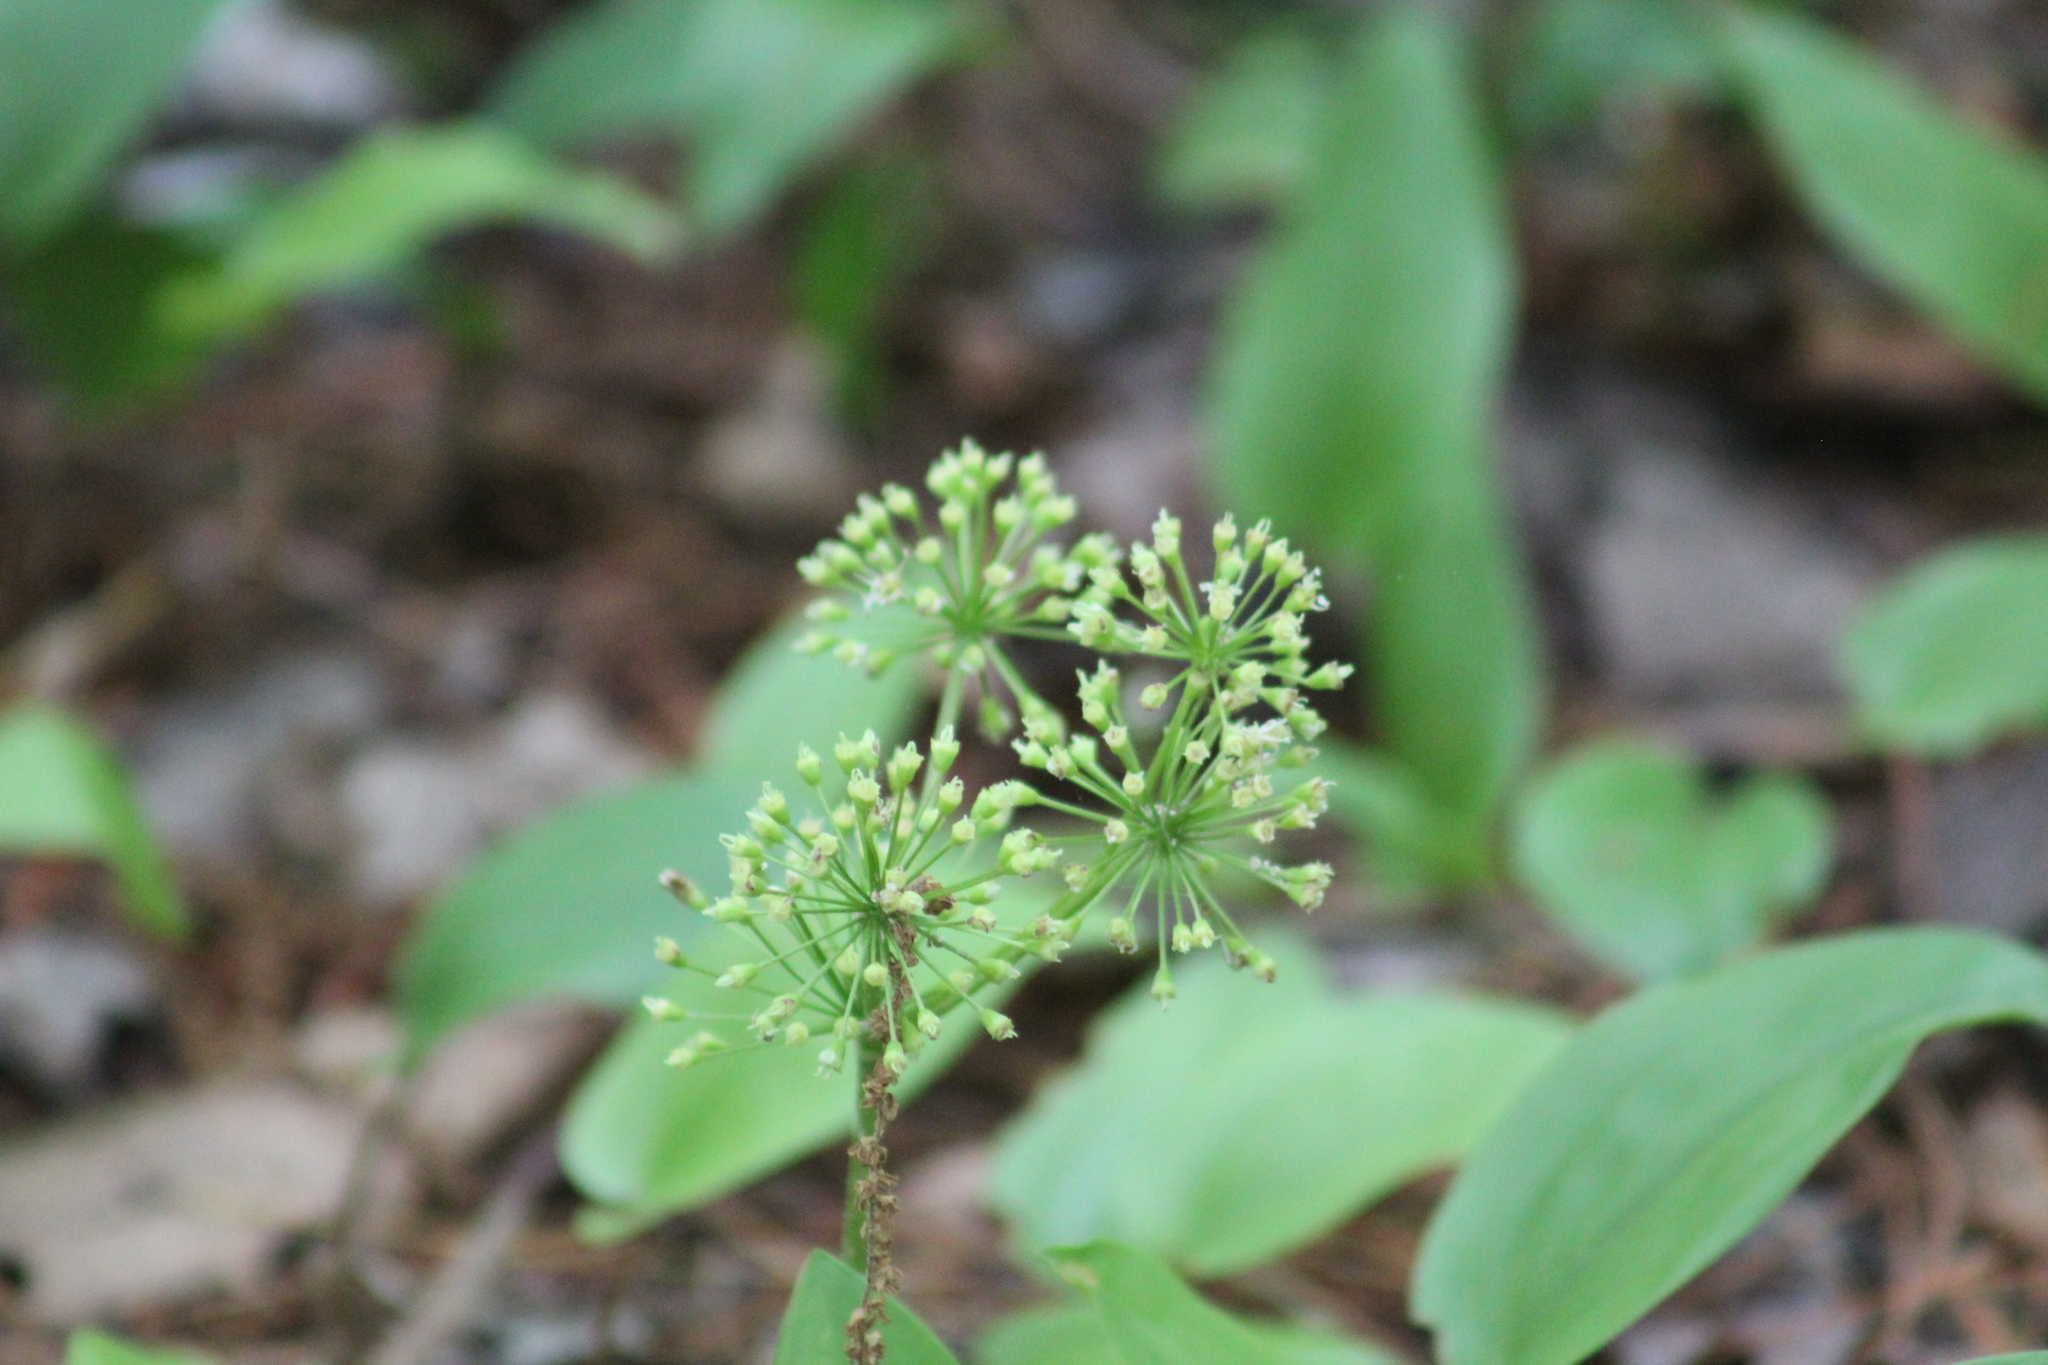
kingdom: Plantae
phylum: Tracheophyta
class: Magnoliopsida
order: Apiales
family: Araliaceae
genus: Aralia
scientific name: Aralia nudicaulis
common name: Wild sarsaparilla
